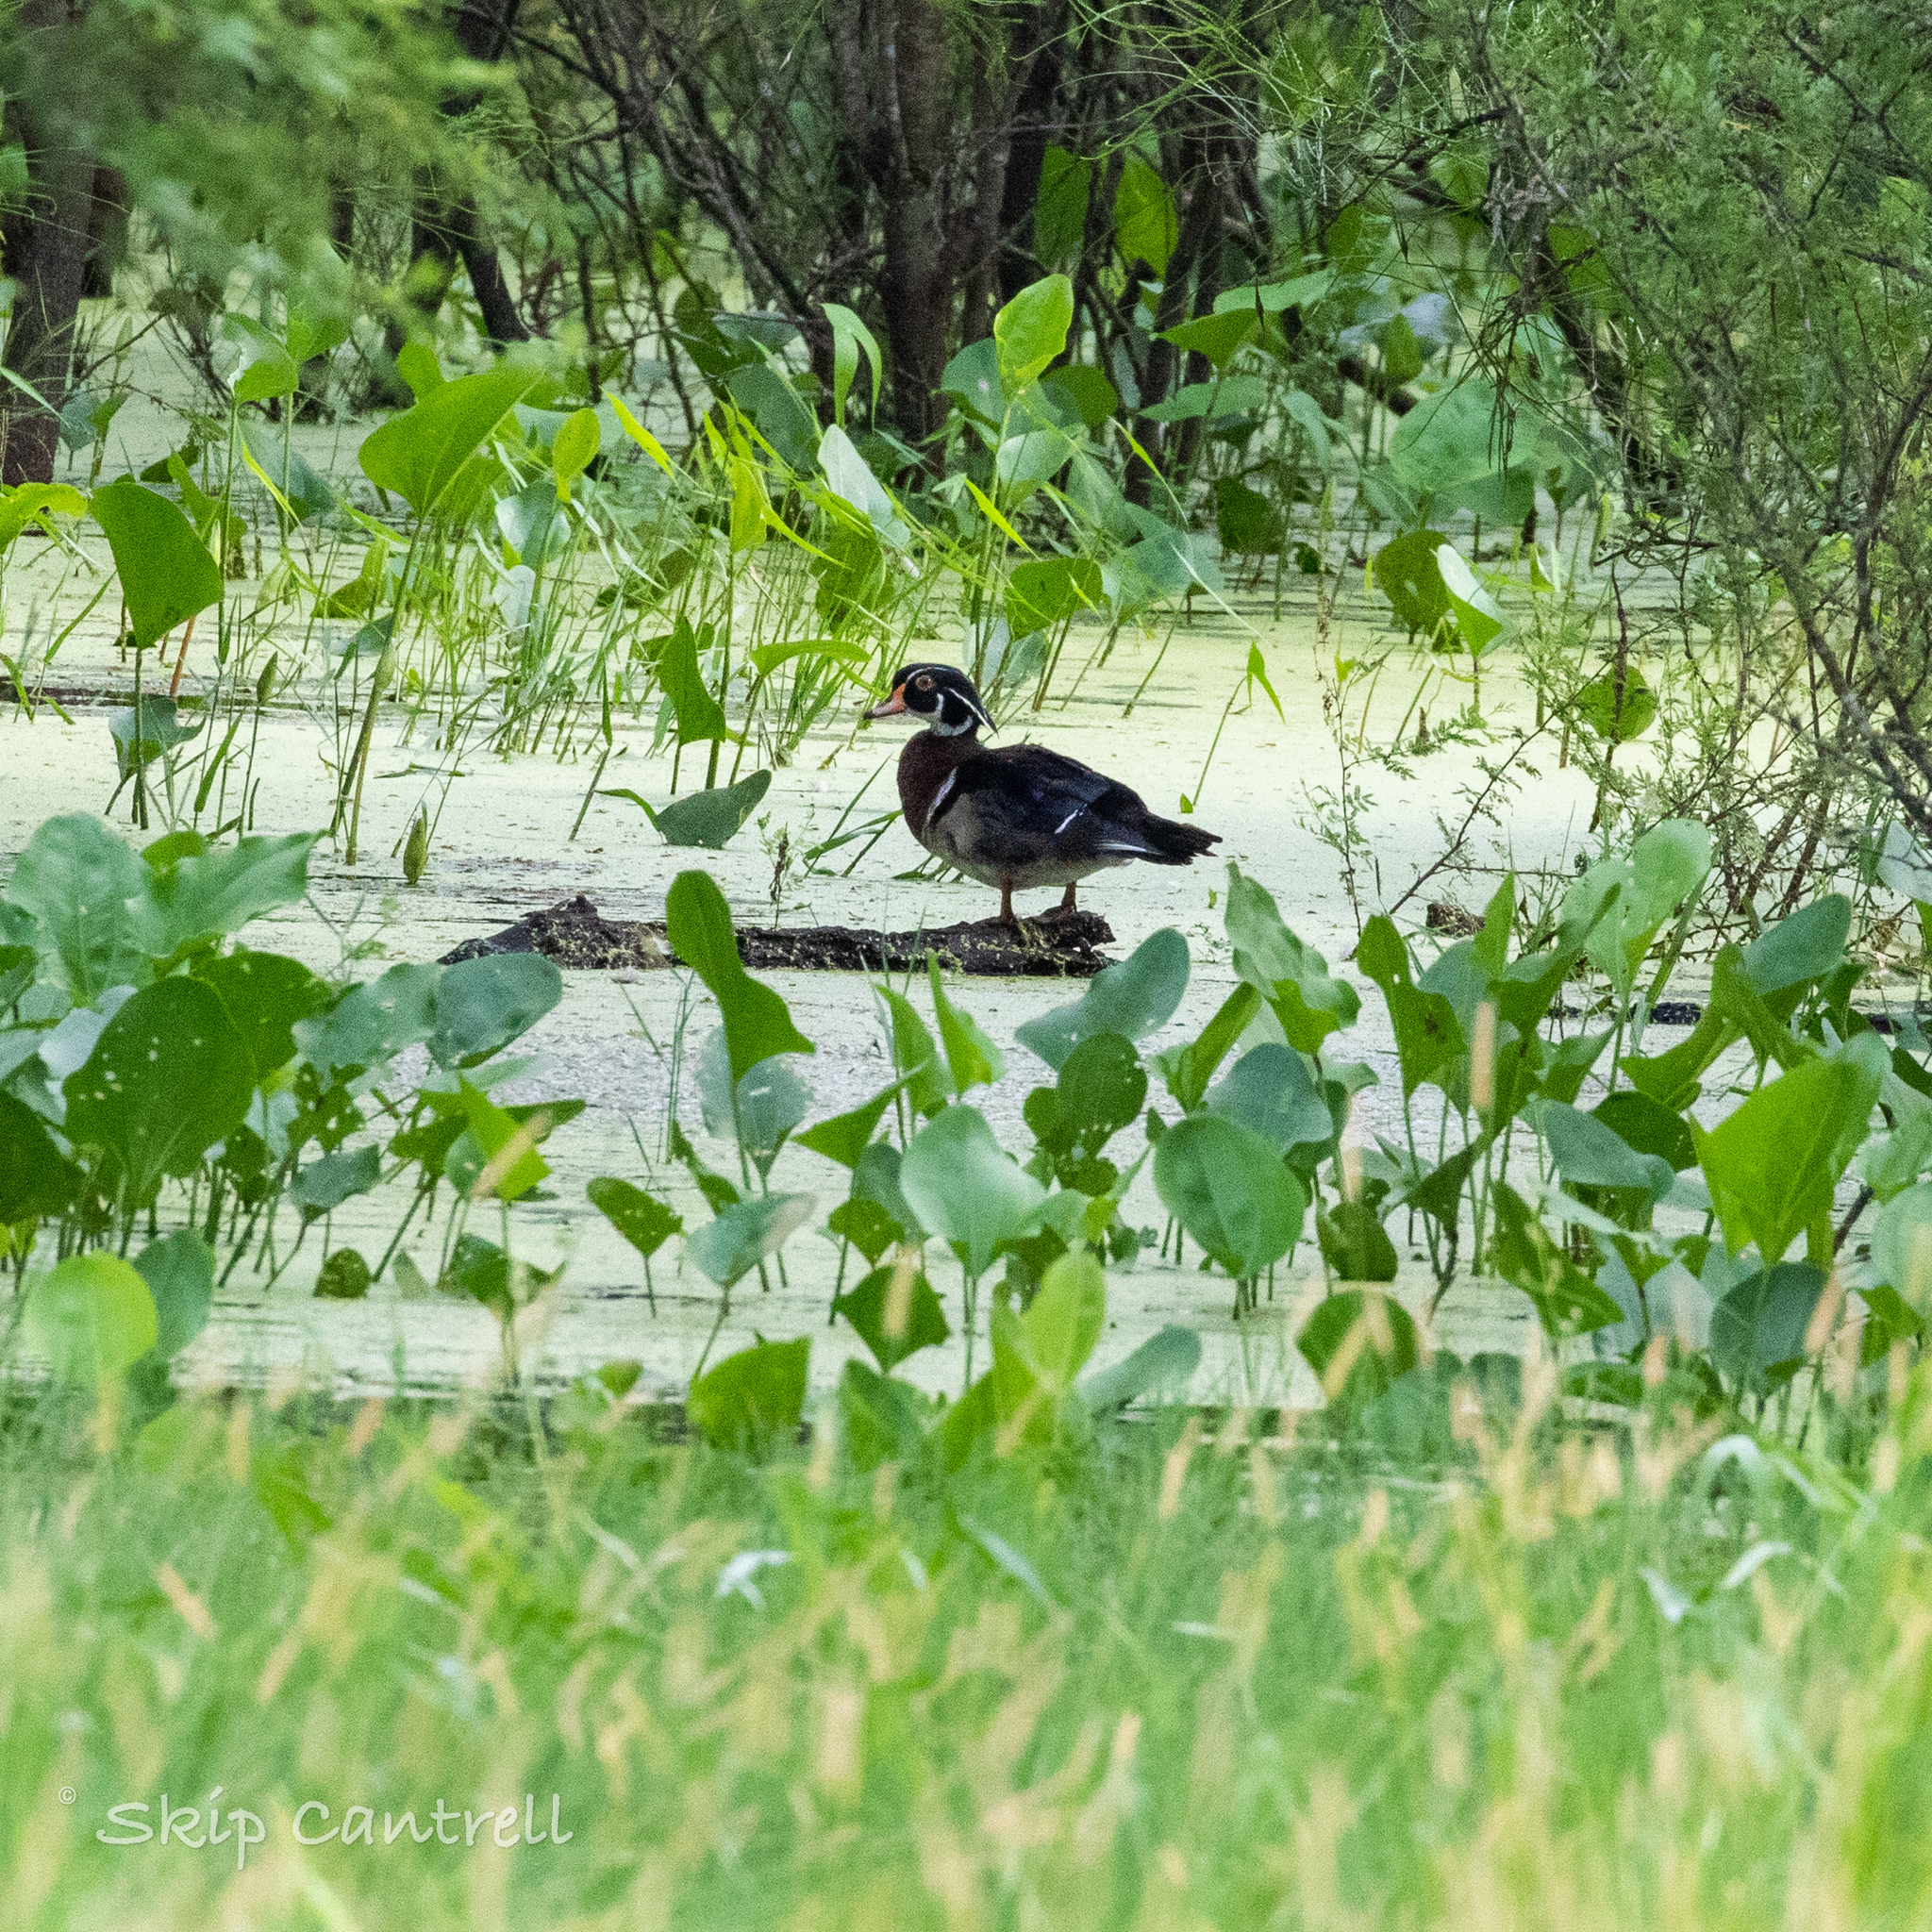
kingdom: Animalia
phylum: Chordata
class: Aves
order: Anseriformes
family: Anatidae
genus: Aix
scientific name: Aix sponsa
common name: Wood duck
